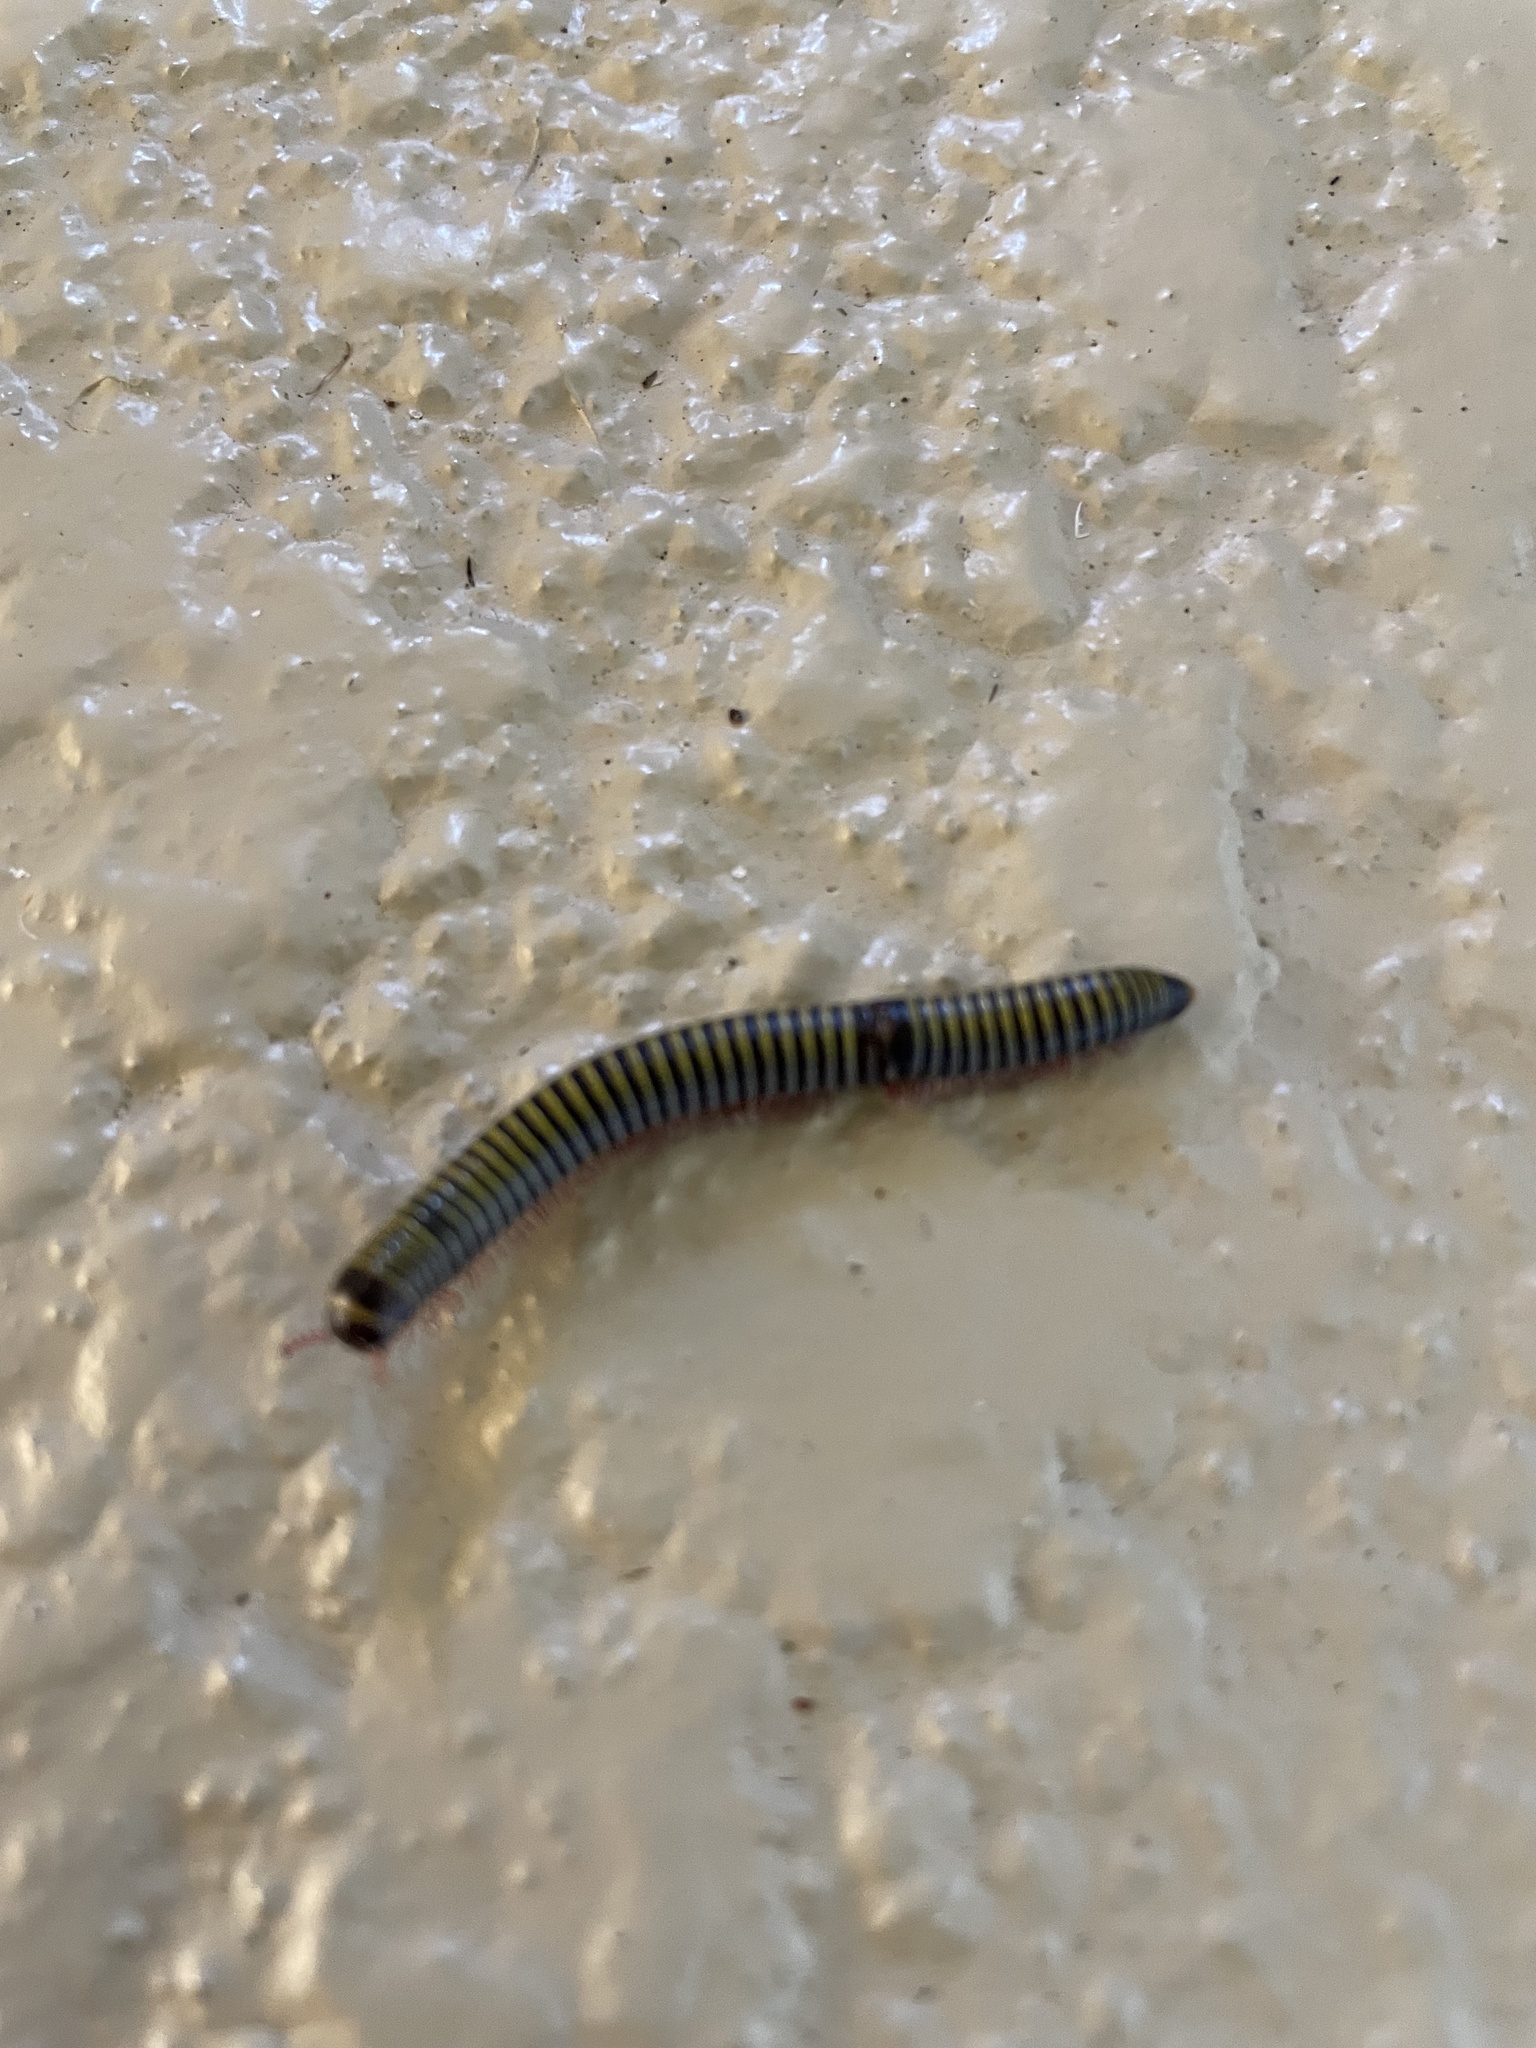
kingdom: Animalia
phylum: Arthropoda
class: Diplopoda
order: Spirobolida
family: Rhinocricidae
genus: Anadenobolus
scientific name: Anadenobolus monilicornis
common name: Caribbean millipede
